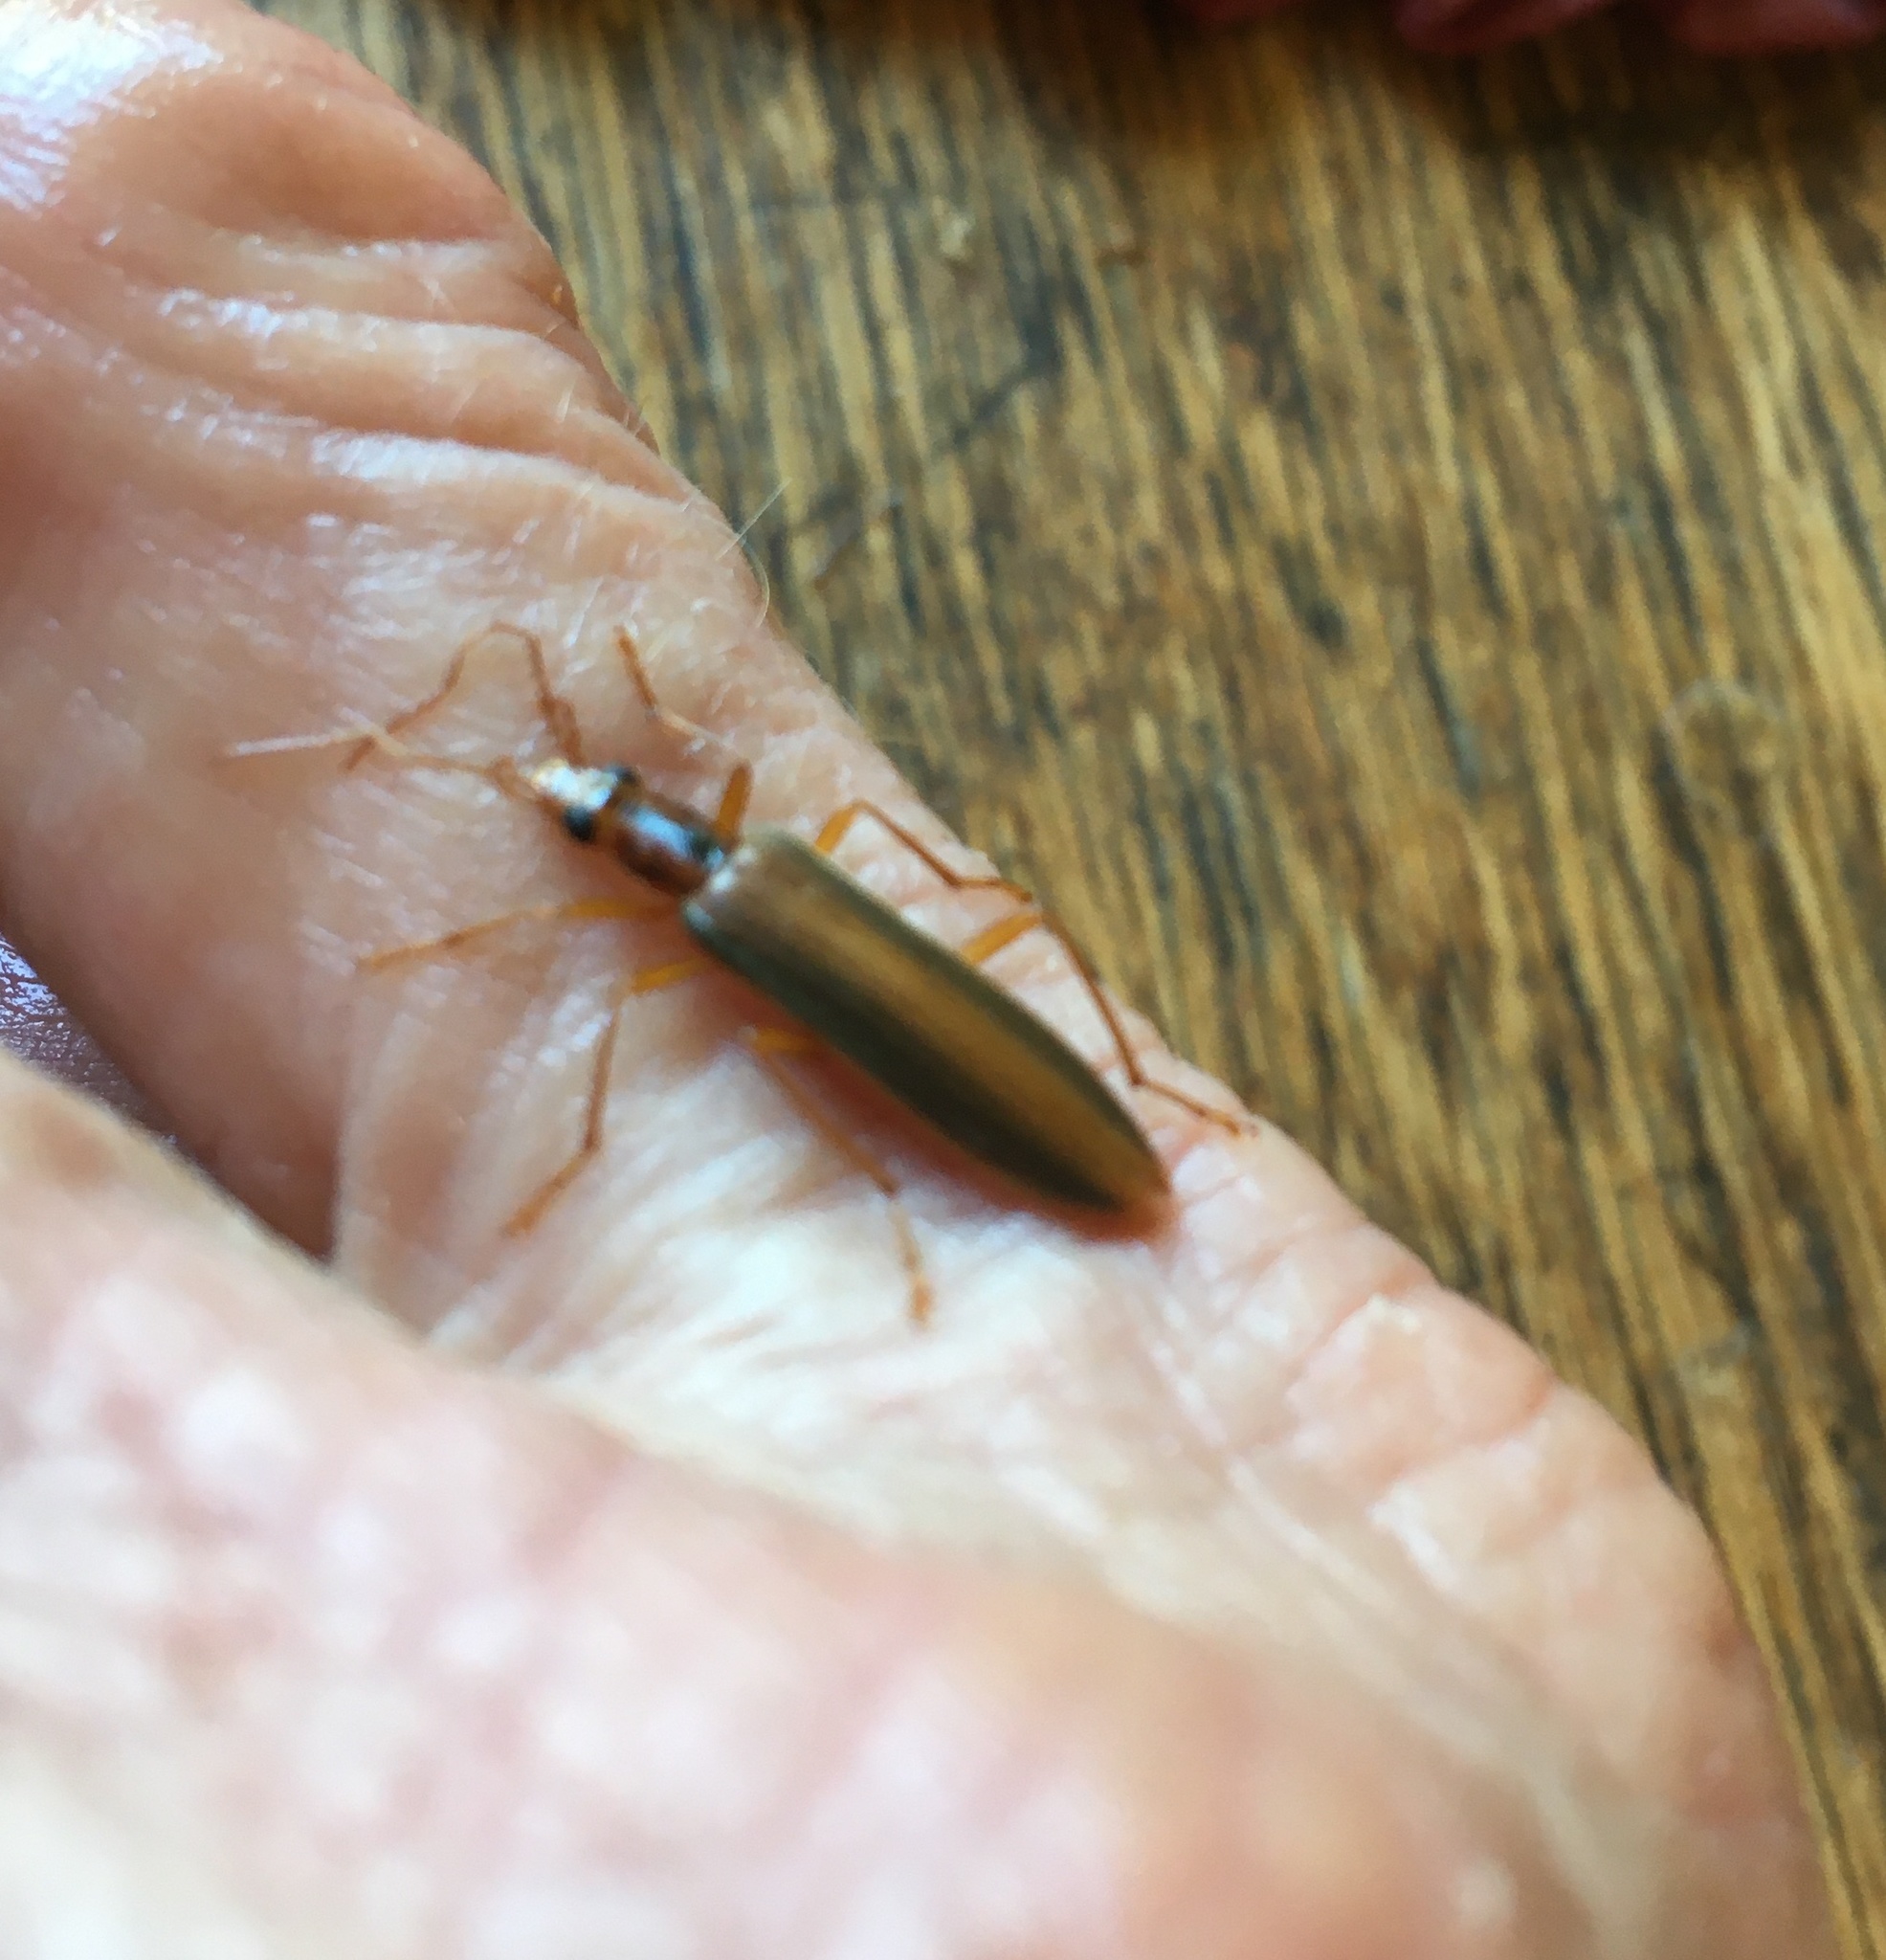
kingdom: Animalia
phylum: Arthropoda
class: Insecta
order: Coleoptera
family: Oedemeridae
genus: Thelyphassa
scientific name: Thelyphassa
